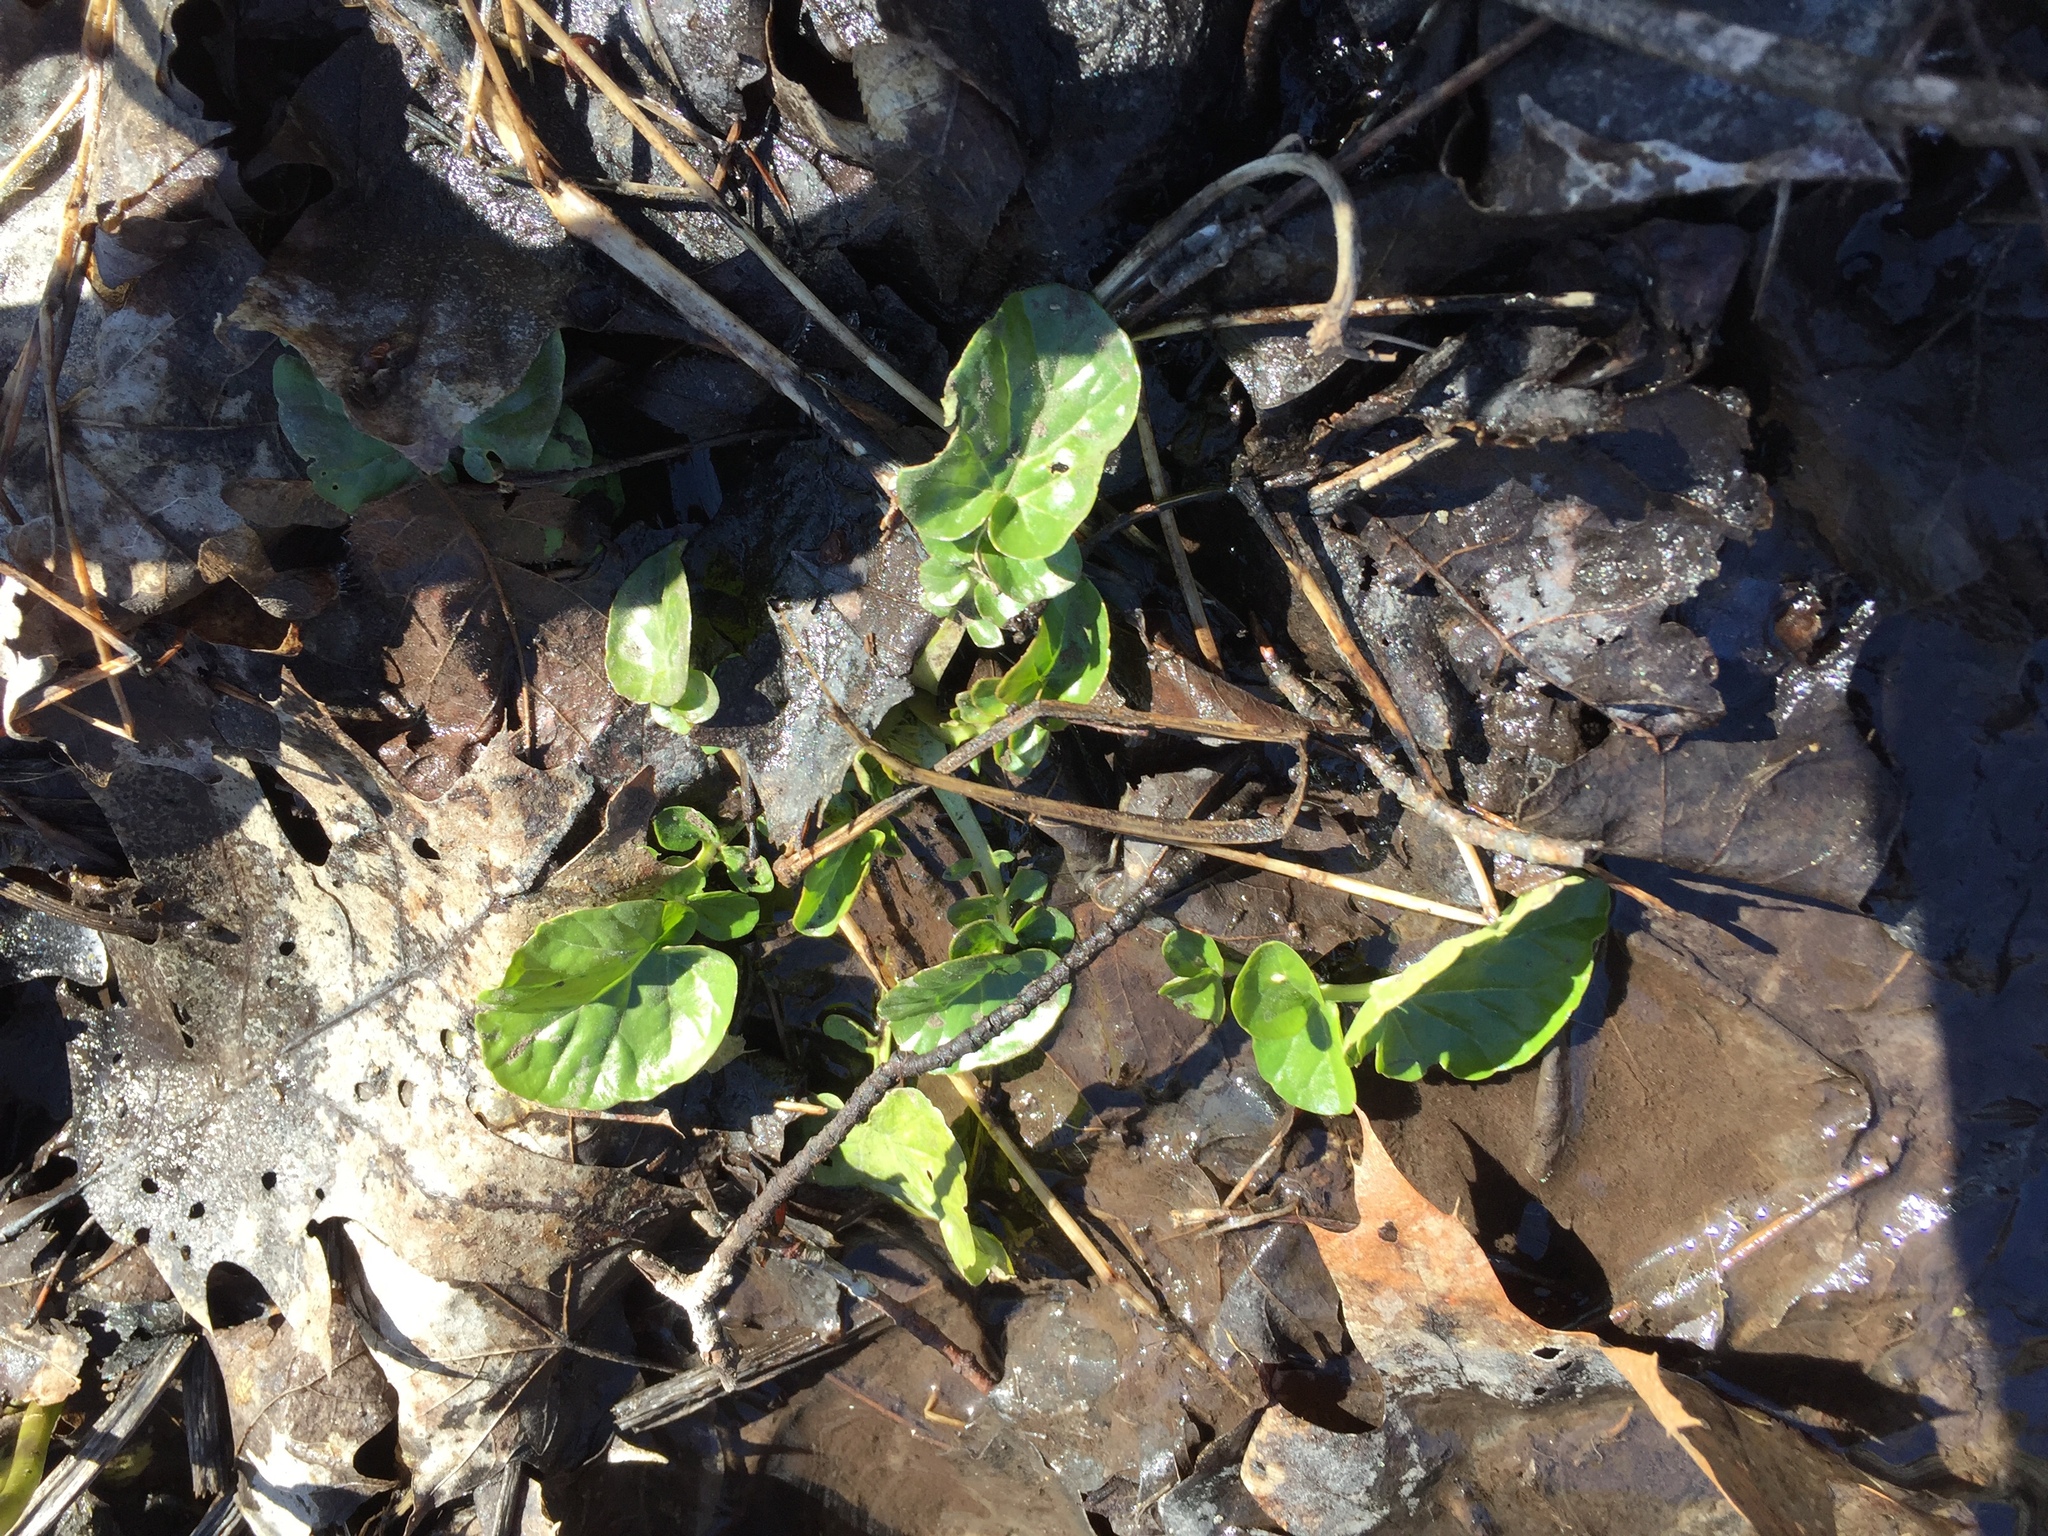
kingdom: Plantae
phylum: Tracheophyta
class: Magnoliopsida
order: Brassicales
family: Brassicaceae
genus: Barbarea
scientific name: Barbarea vulgaris
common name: Cressy-greens
